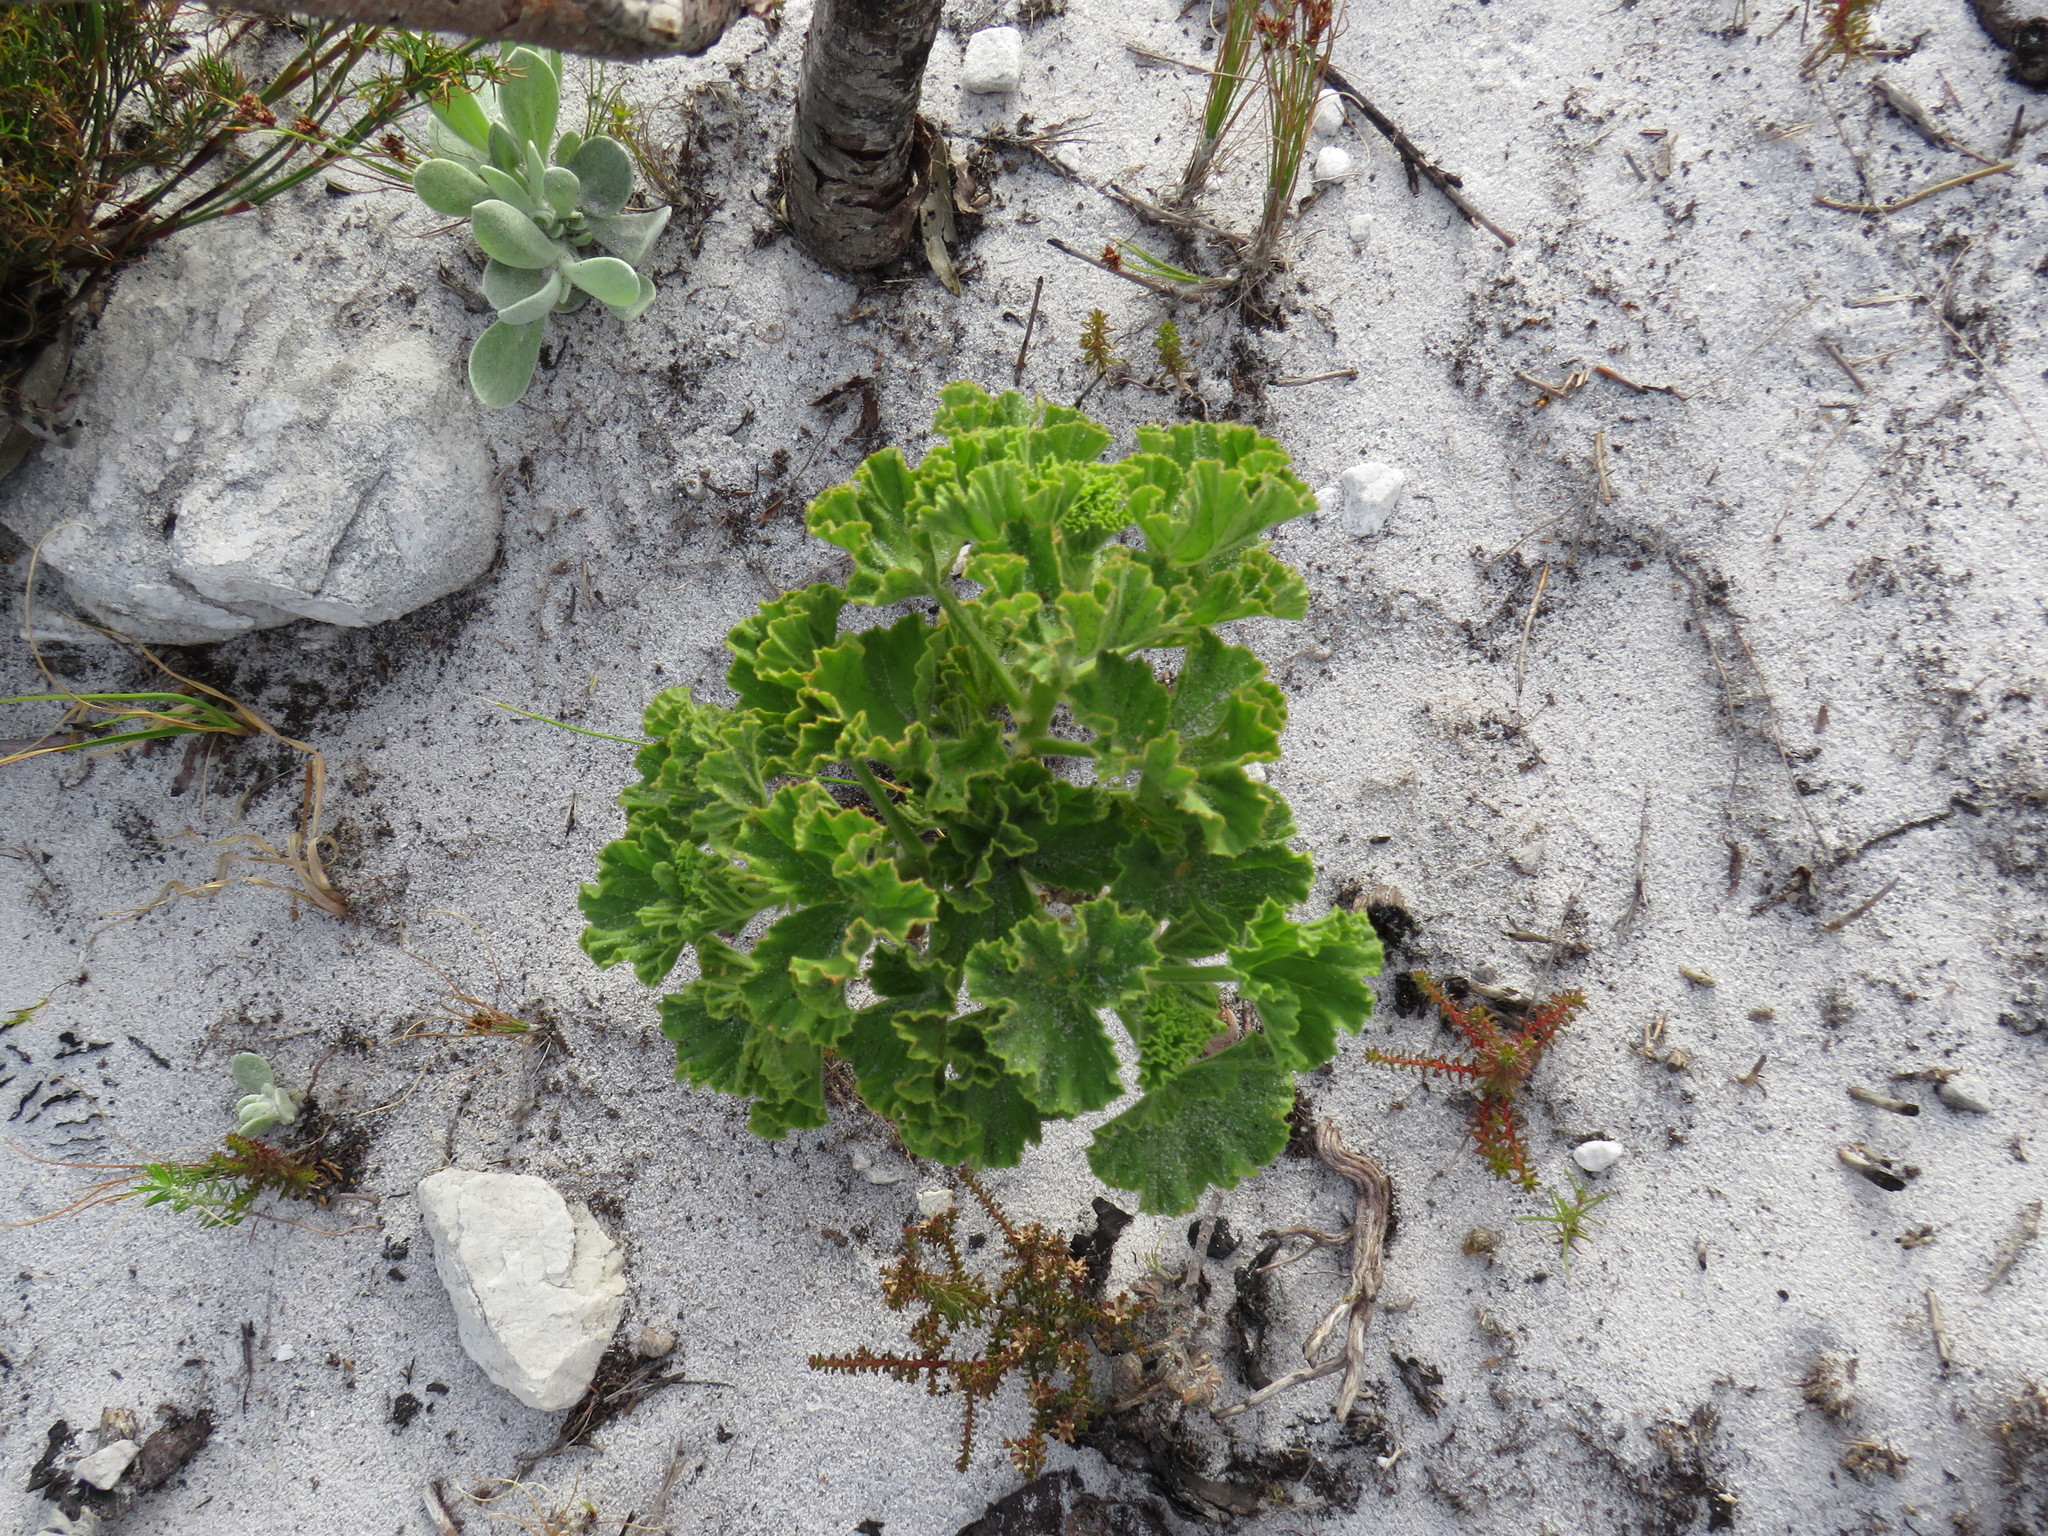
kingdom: Plantae
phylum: Tracheophyta
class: Magnoliopsida
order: Geraniales
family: Geraniaceae
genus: Pelargonium
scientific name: Pelargonium cucullatum
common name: Tree pelargonium
